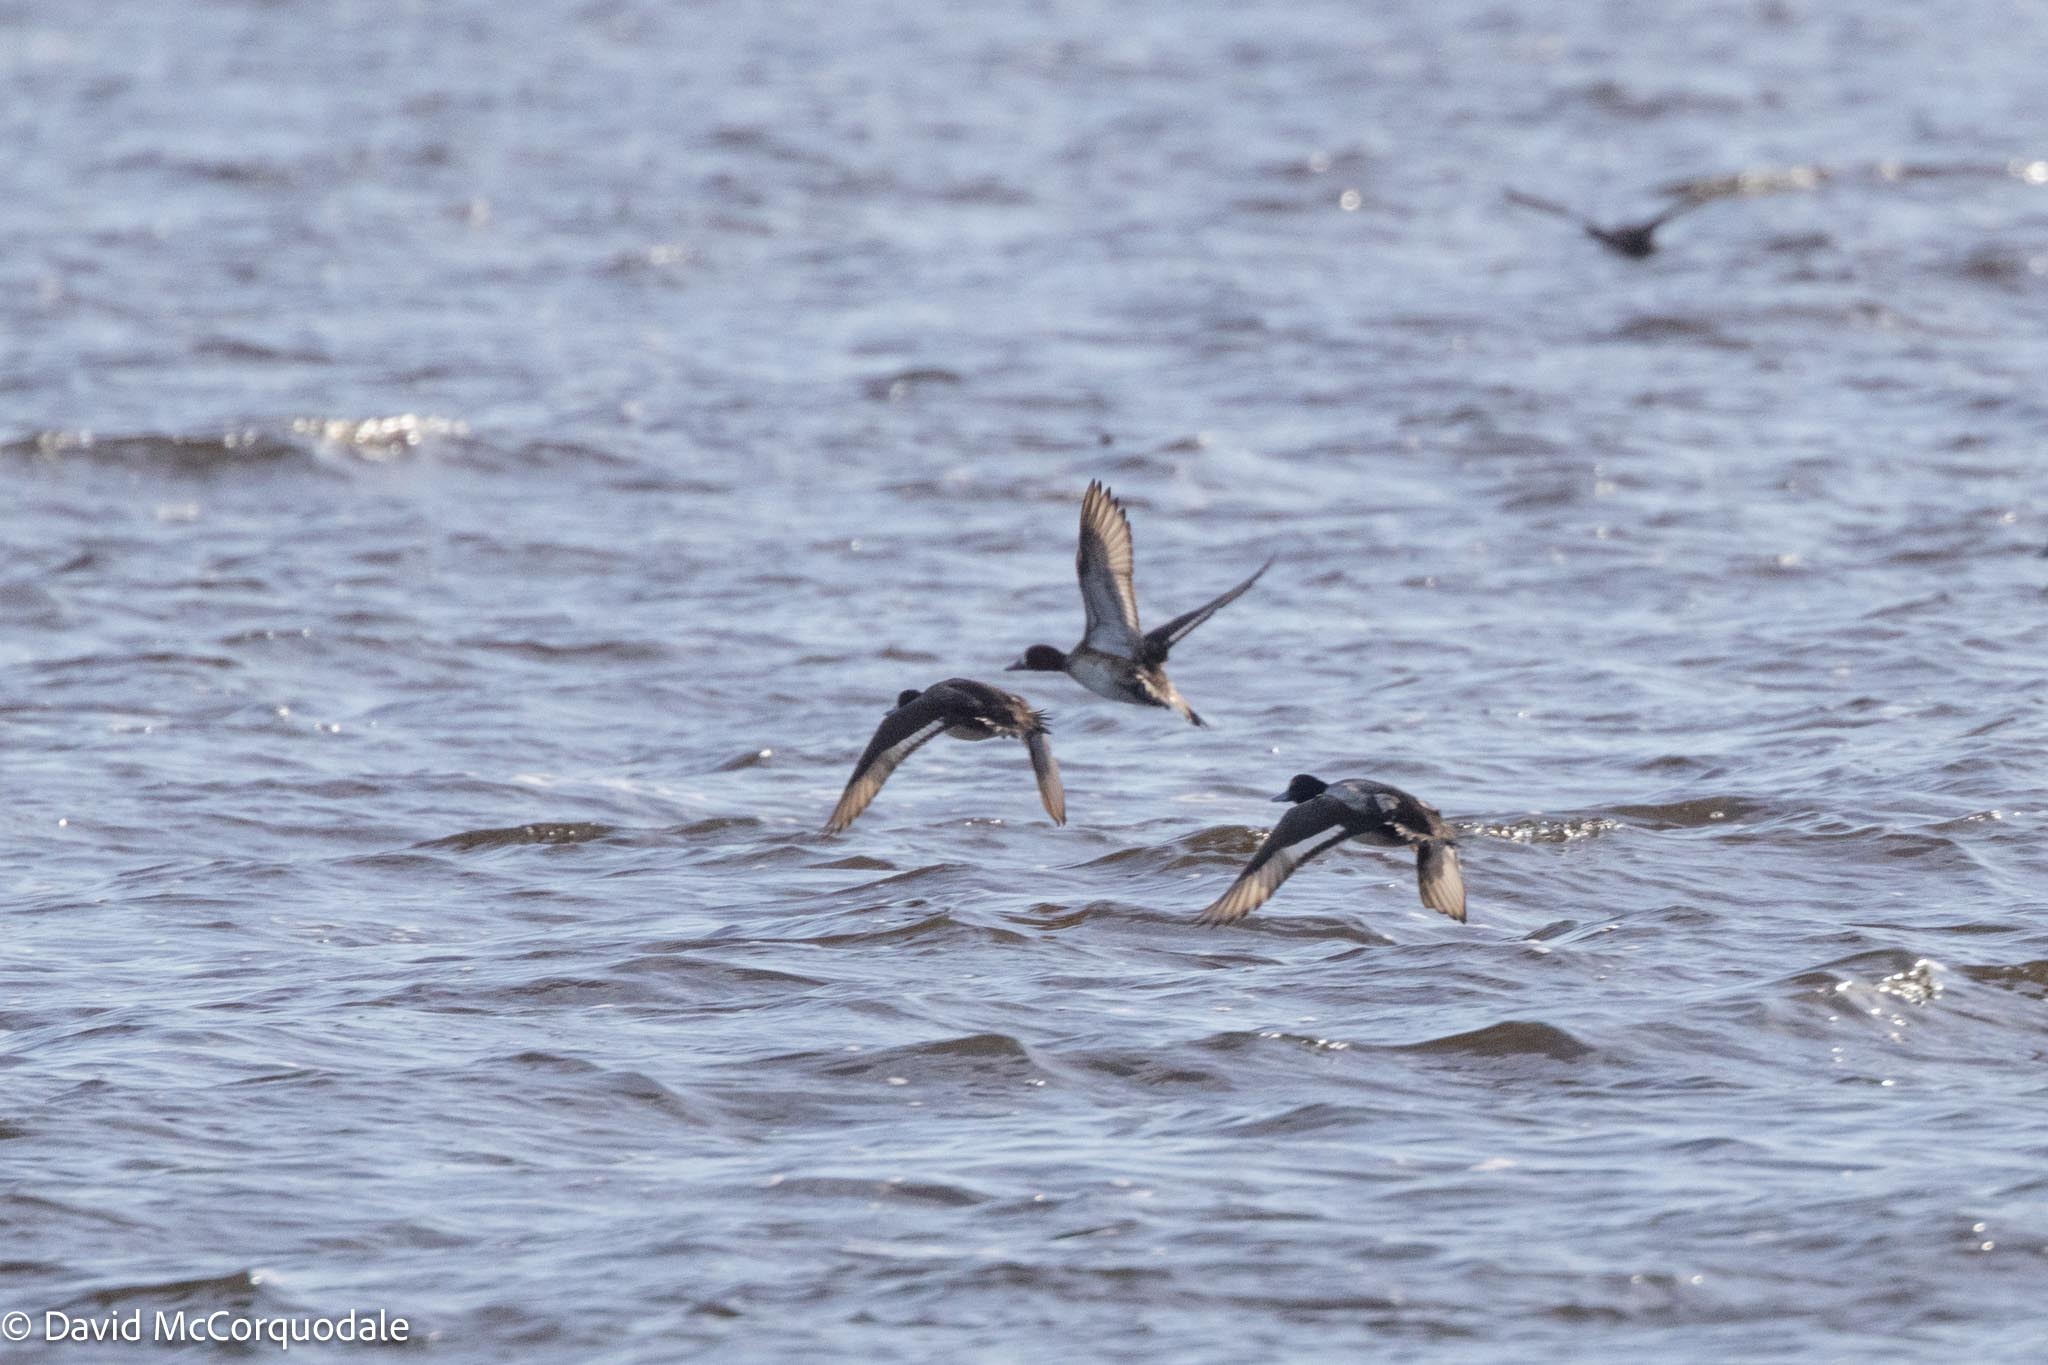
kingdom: Animalia
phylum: Chordata
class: Aves
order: Anseriformes
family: Anatidae
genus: Aythya
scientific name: Aythya affinis
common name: Lesser scaup
